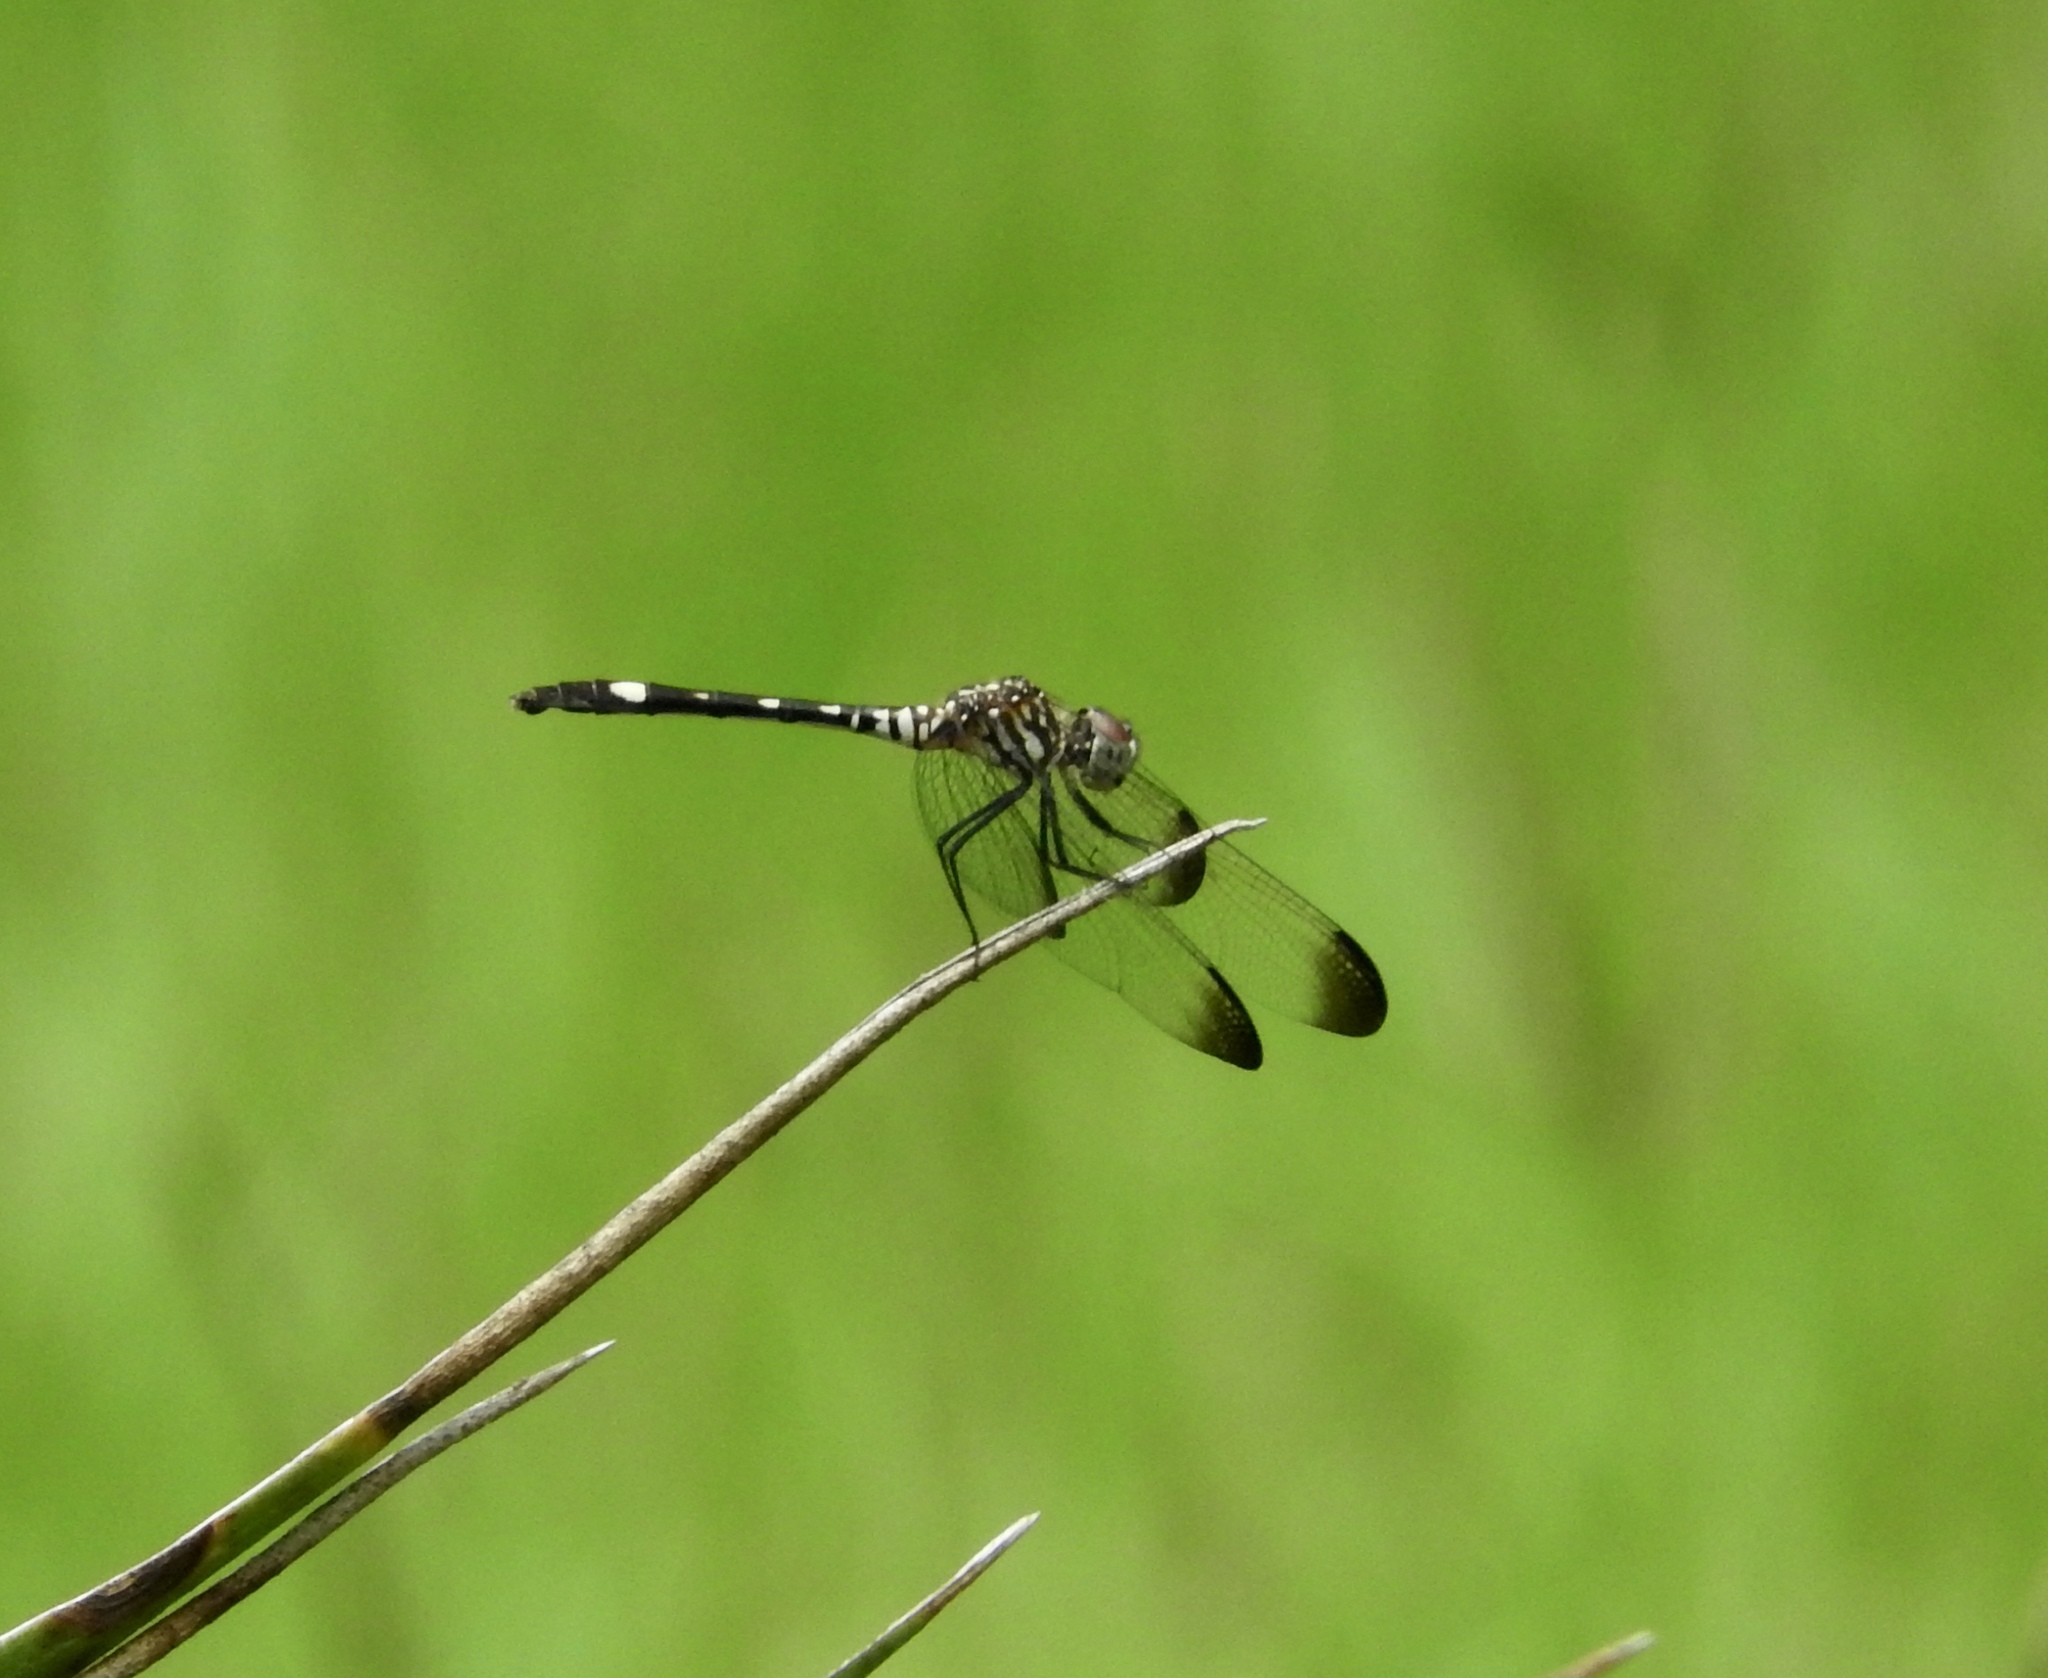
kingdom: Animalia
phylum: Arthropoda
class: Insecta
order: Odonata
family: Libellulidae
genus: Dythemis
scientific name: Dythemis velox
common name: Swift setwing
